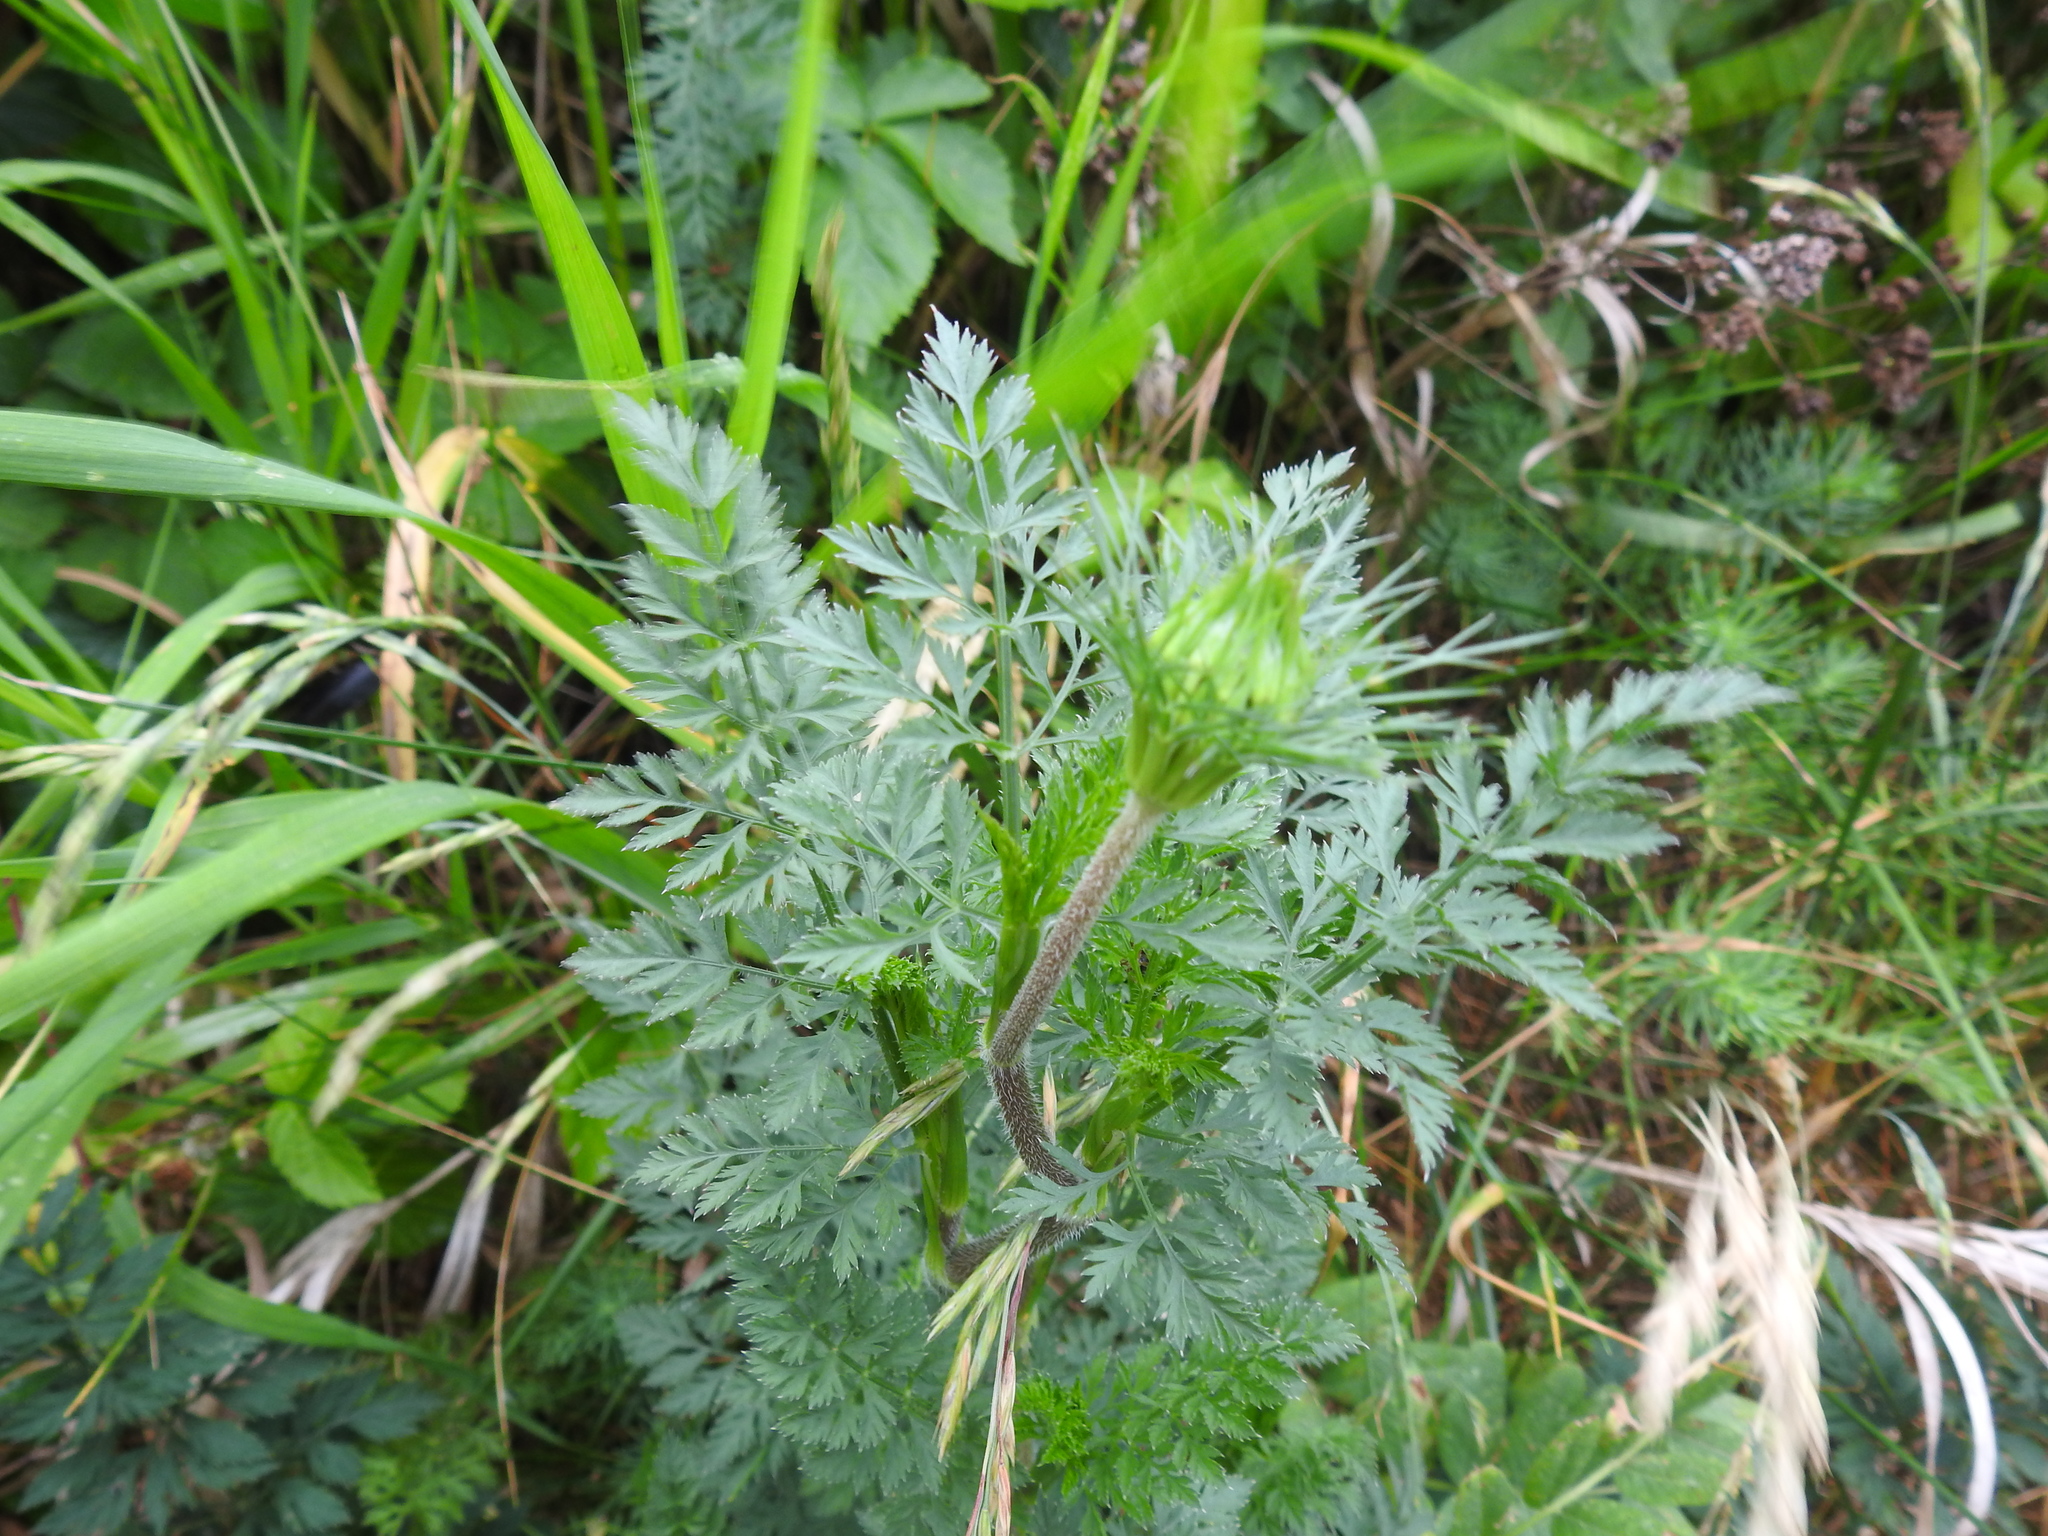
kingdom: Plantae
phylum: Tracheophyta
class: Magnoliopsida
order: Apiales
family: Apiaceae
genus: Aethusa
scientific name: Aethusa cynapium
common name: Fool's parsley
